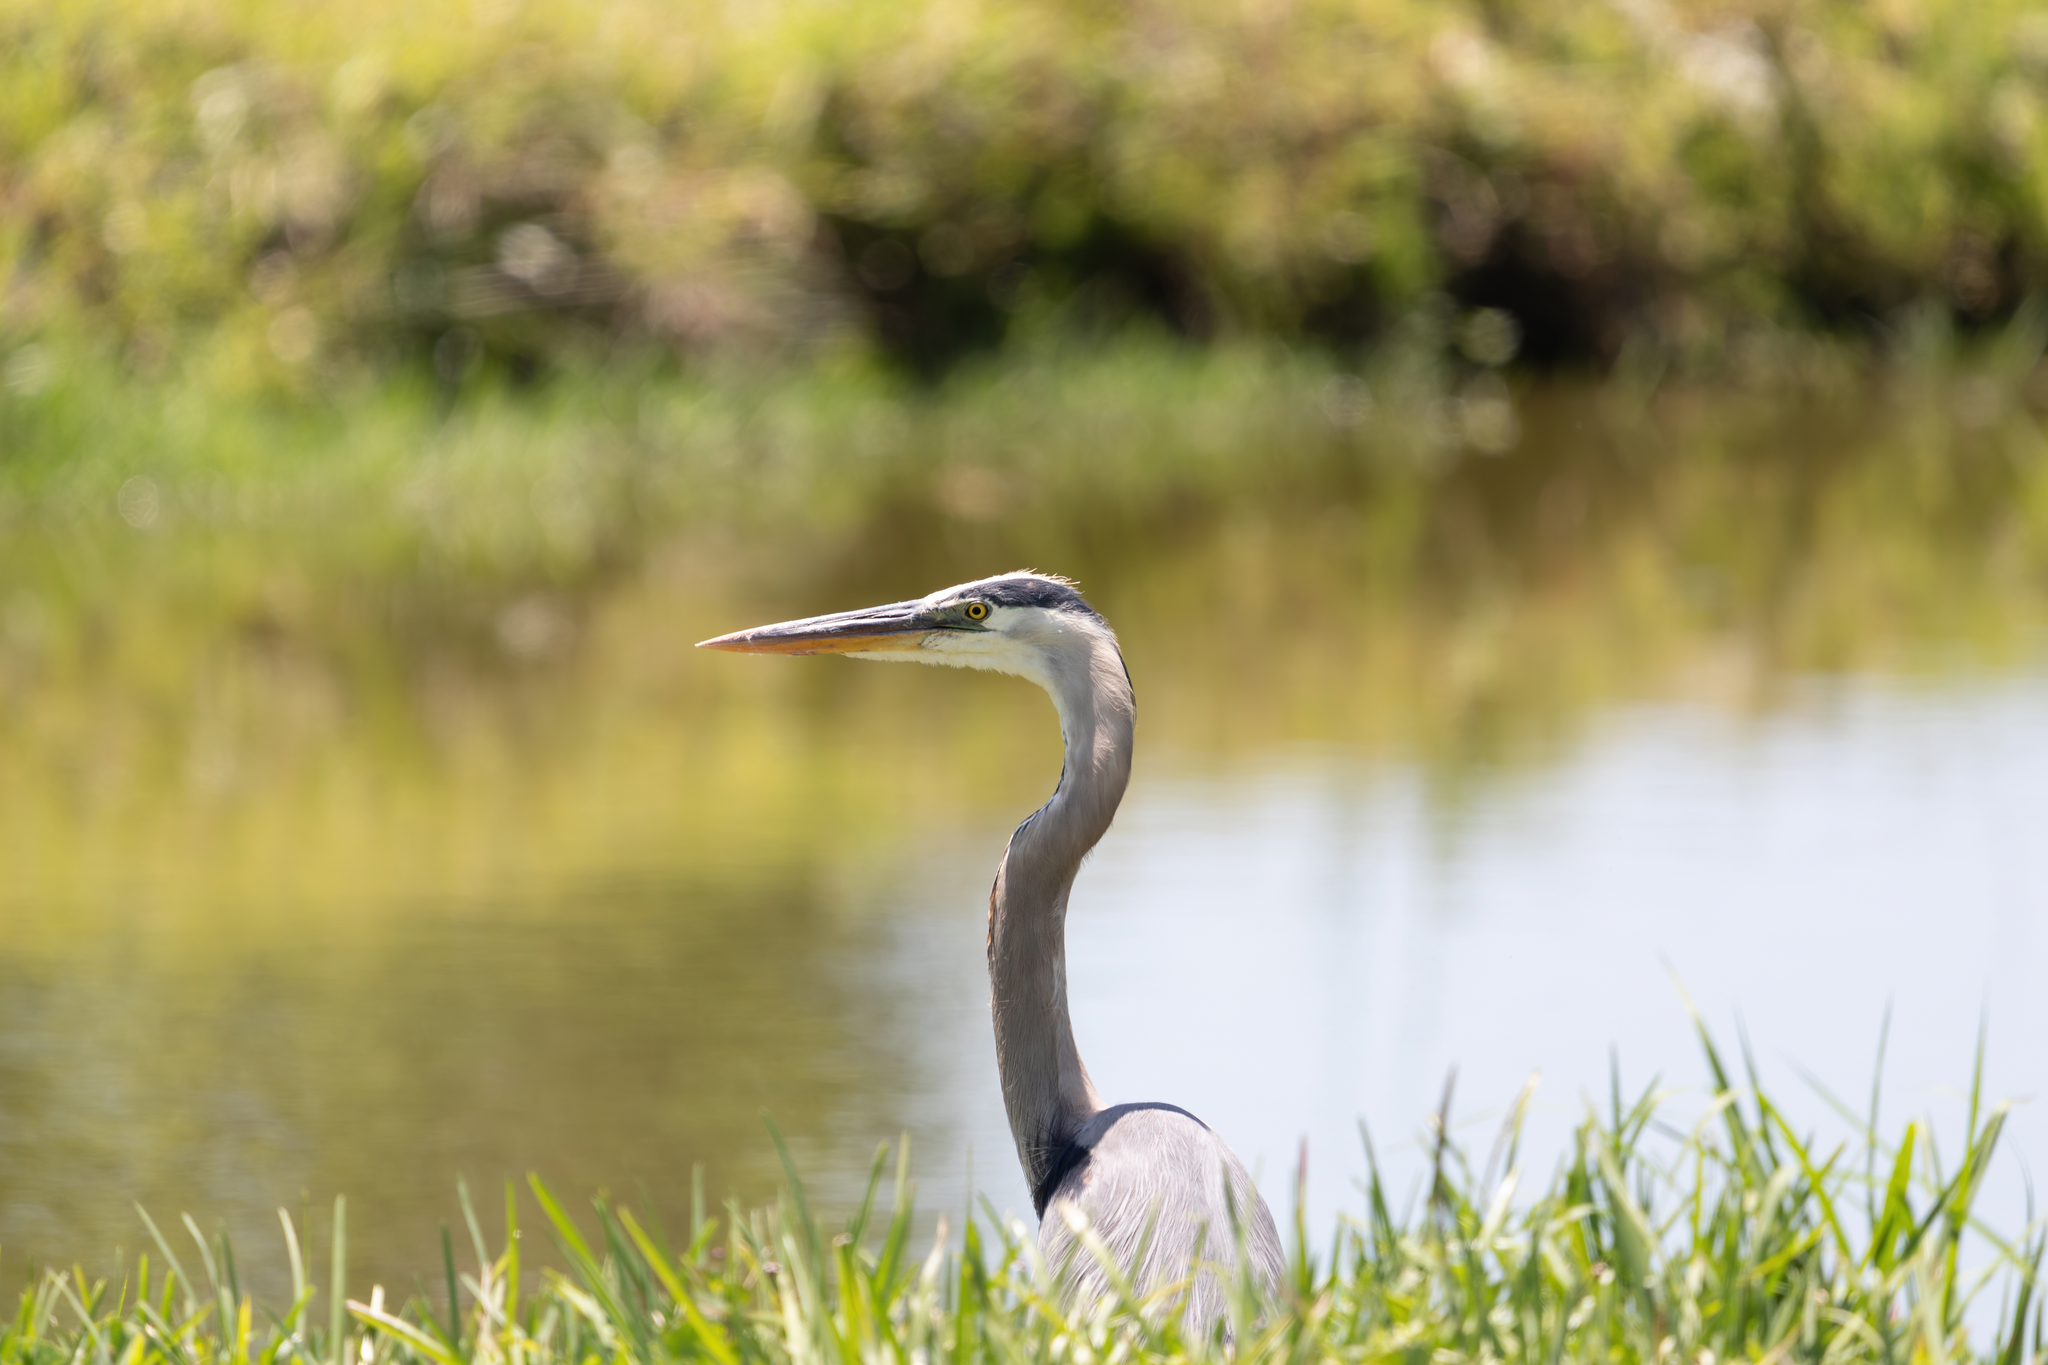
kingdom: Animalia
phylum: Chordata
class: Aves
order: Pelecaniformes
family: Ardeidae
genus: Ardea
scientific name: Ardea herodias
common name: Great blue heron
